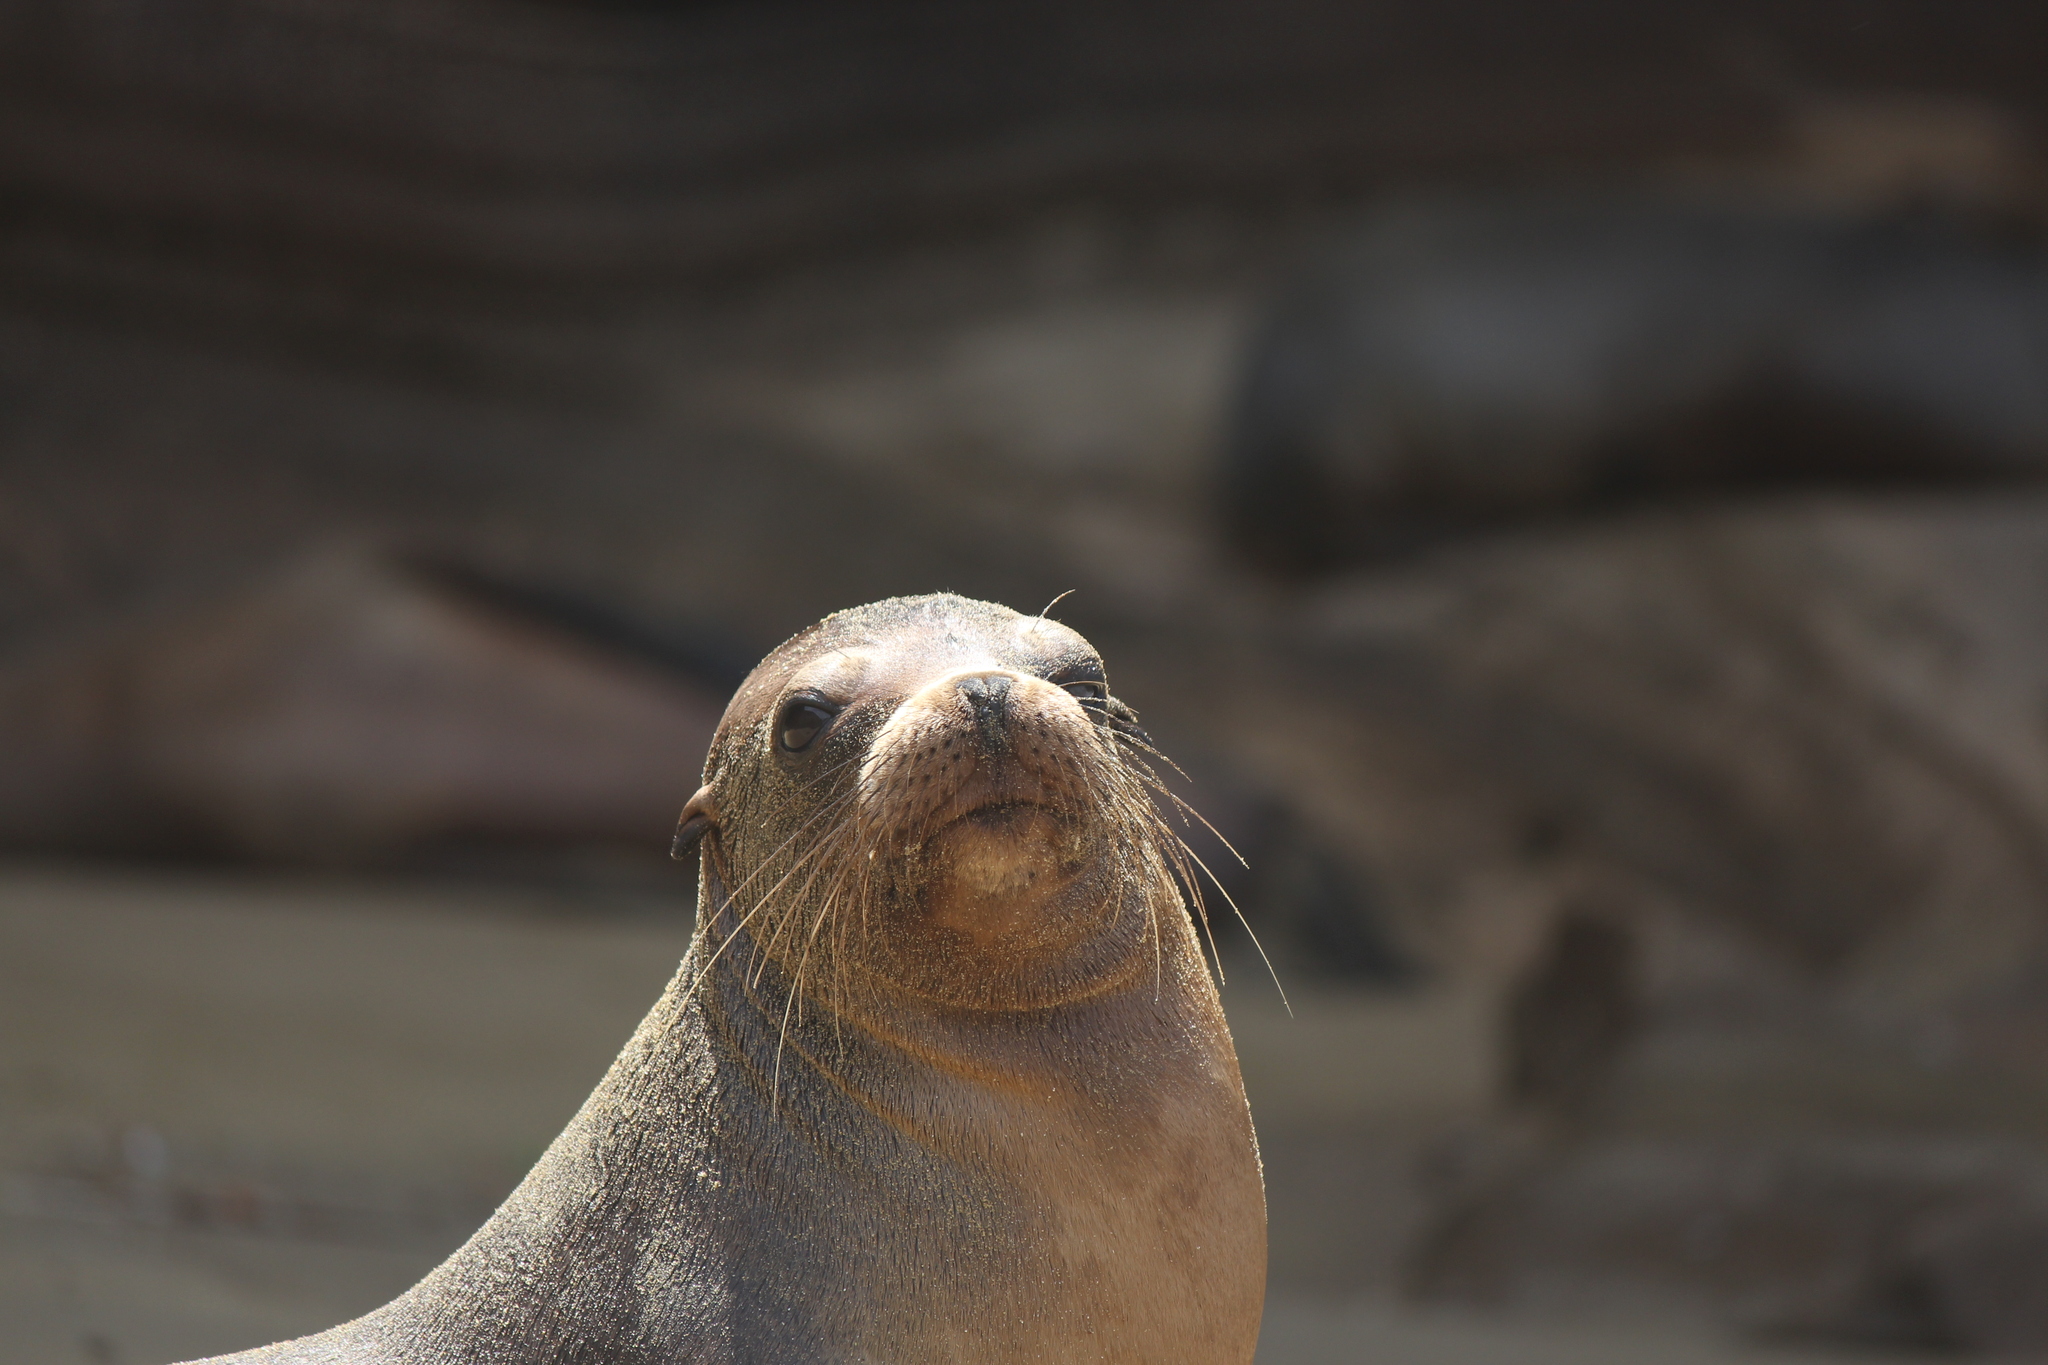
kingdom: Animalia
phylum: Chordata
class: Mammalia
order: Carnivora
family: Otariidae
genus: Zalophus
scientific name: Zalophus wollebaeki
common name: Galapagos sea lion
